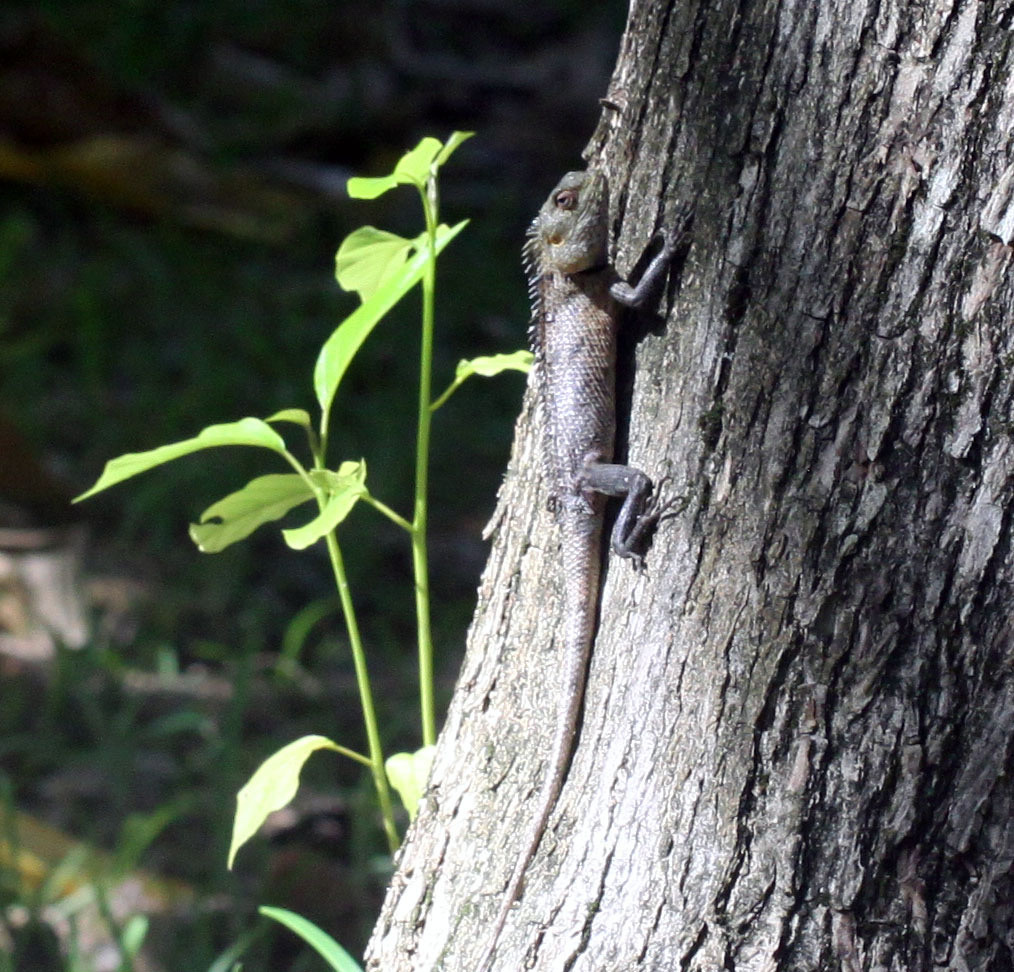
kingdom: Animalia
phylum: Chordata
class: Squamata
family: Agamidae
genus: Calotes
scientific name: Calotes versicolor
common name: Oriental garden lizard
